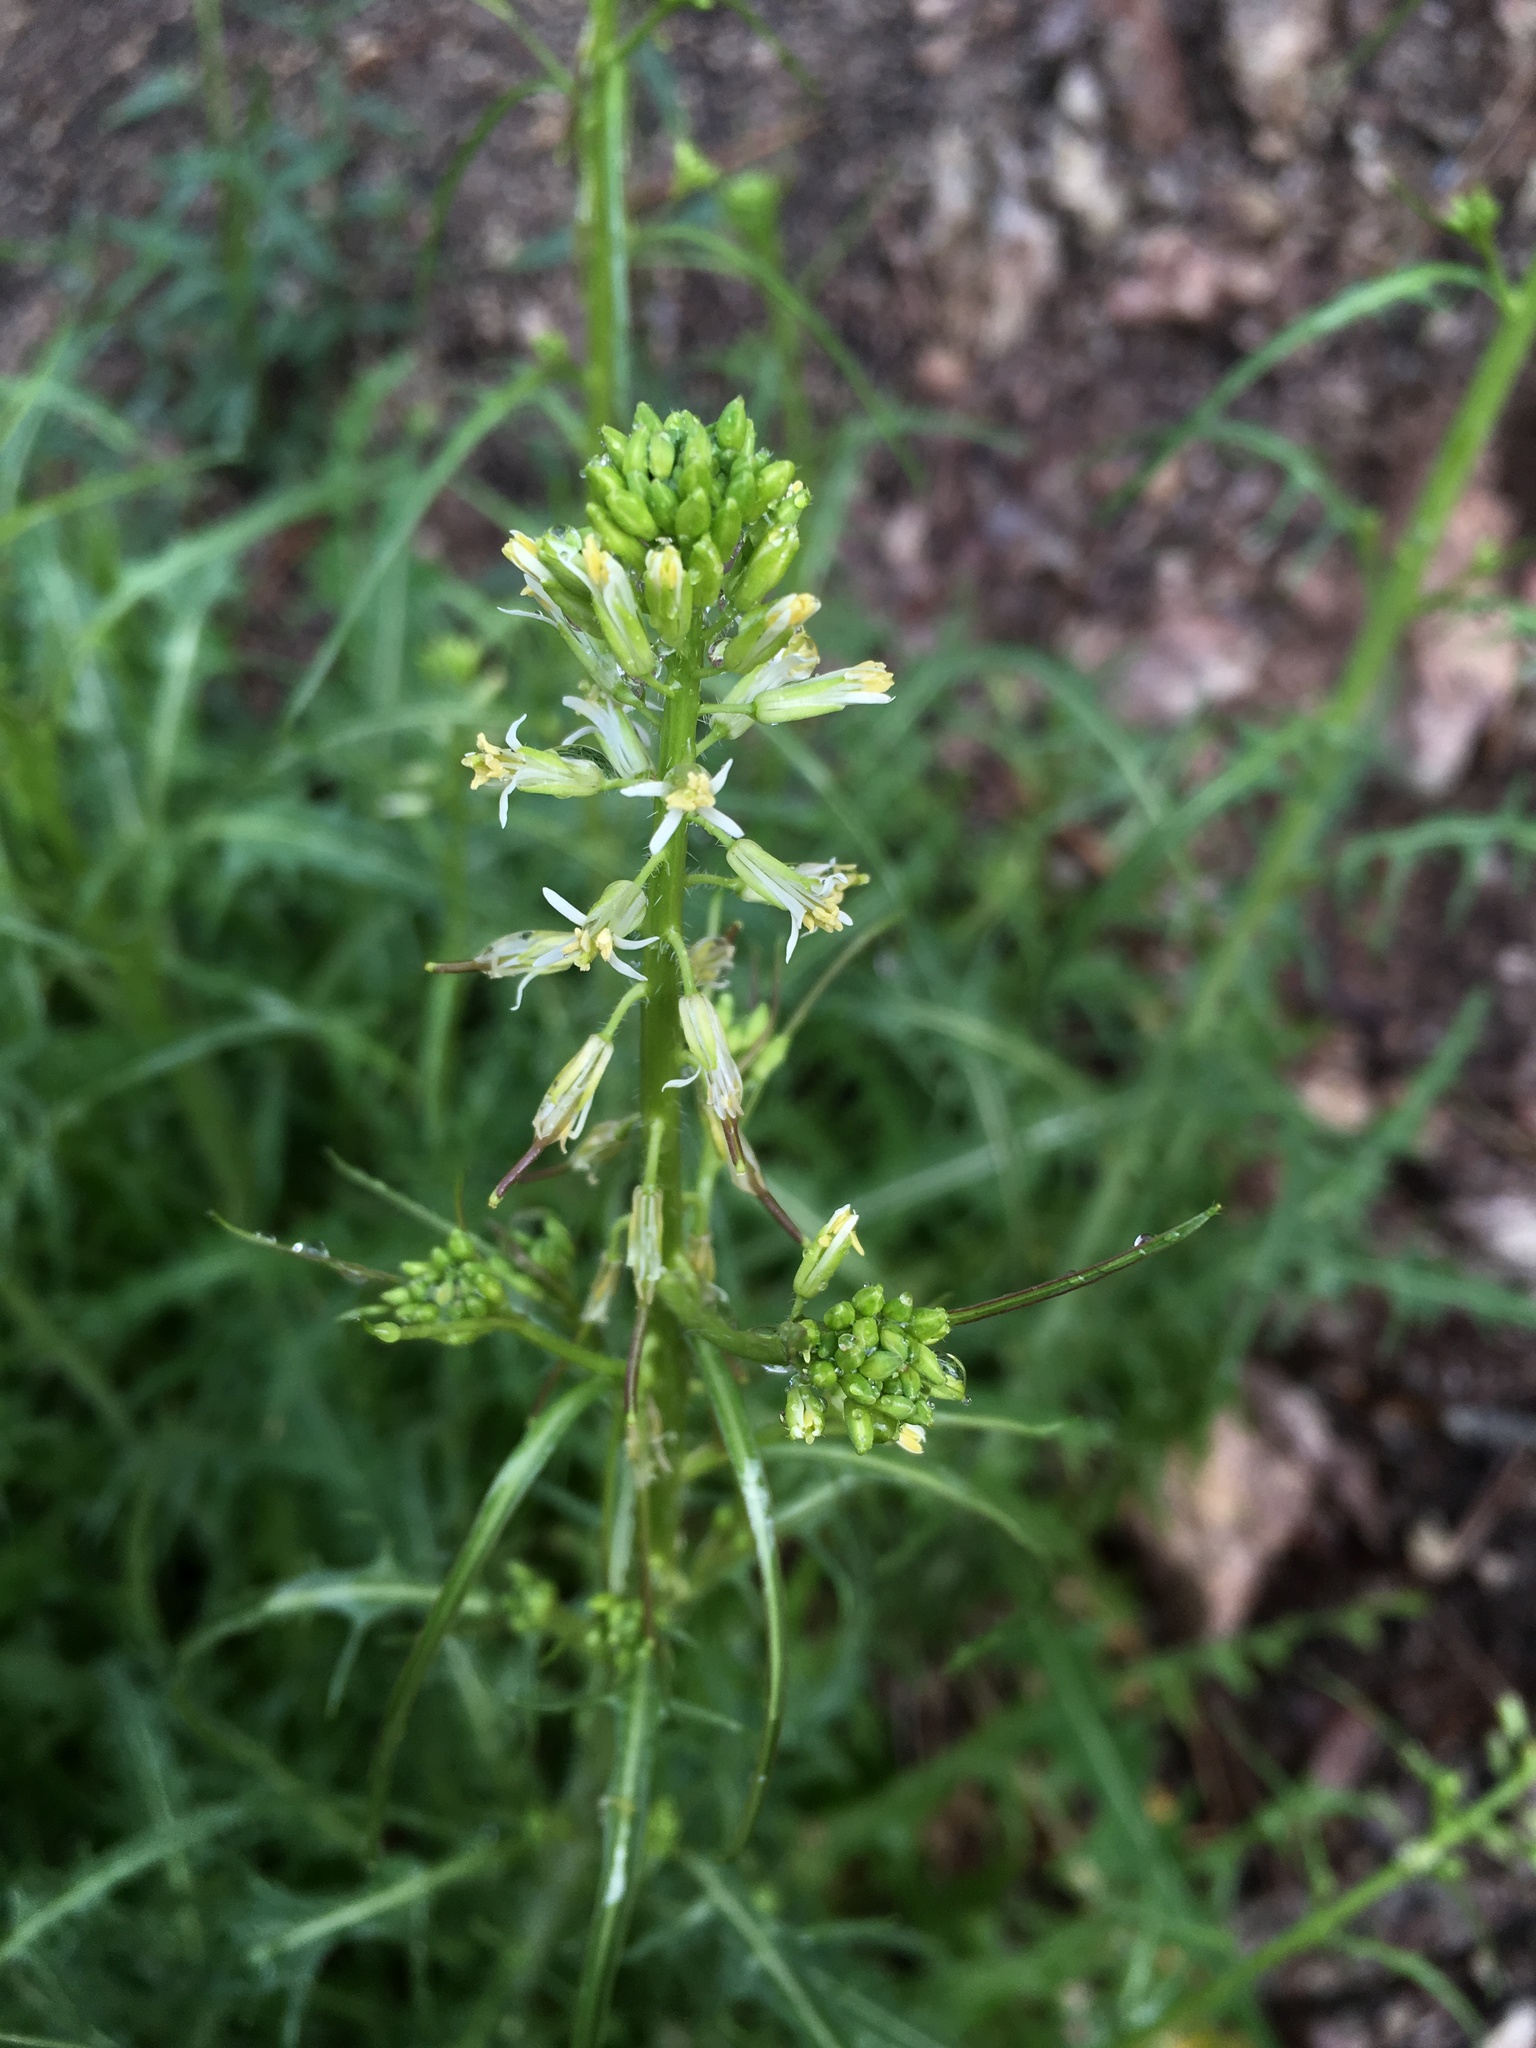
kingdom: Plantae
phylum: Tracheophyta
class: Magnoliopsida
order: Brassicales
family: Brassicaceae
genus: Streptanthus
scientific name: Streptanthus lasiophyllus
